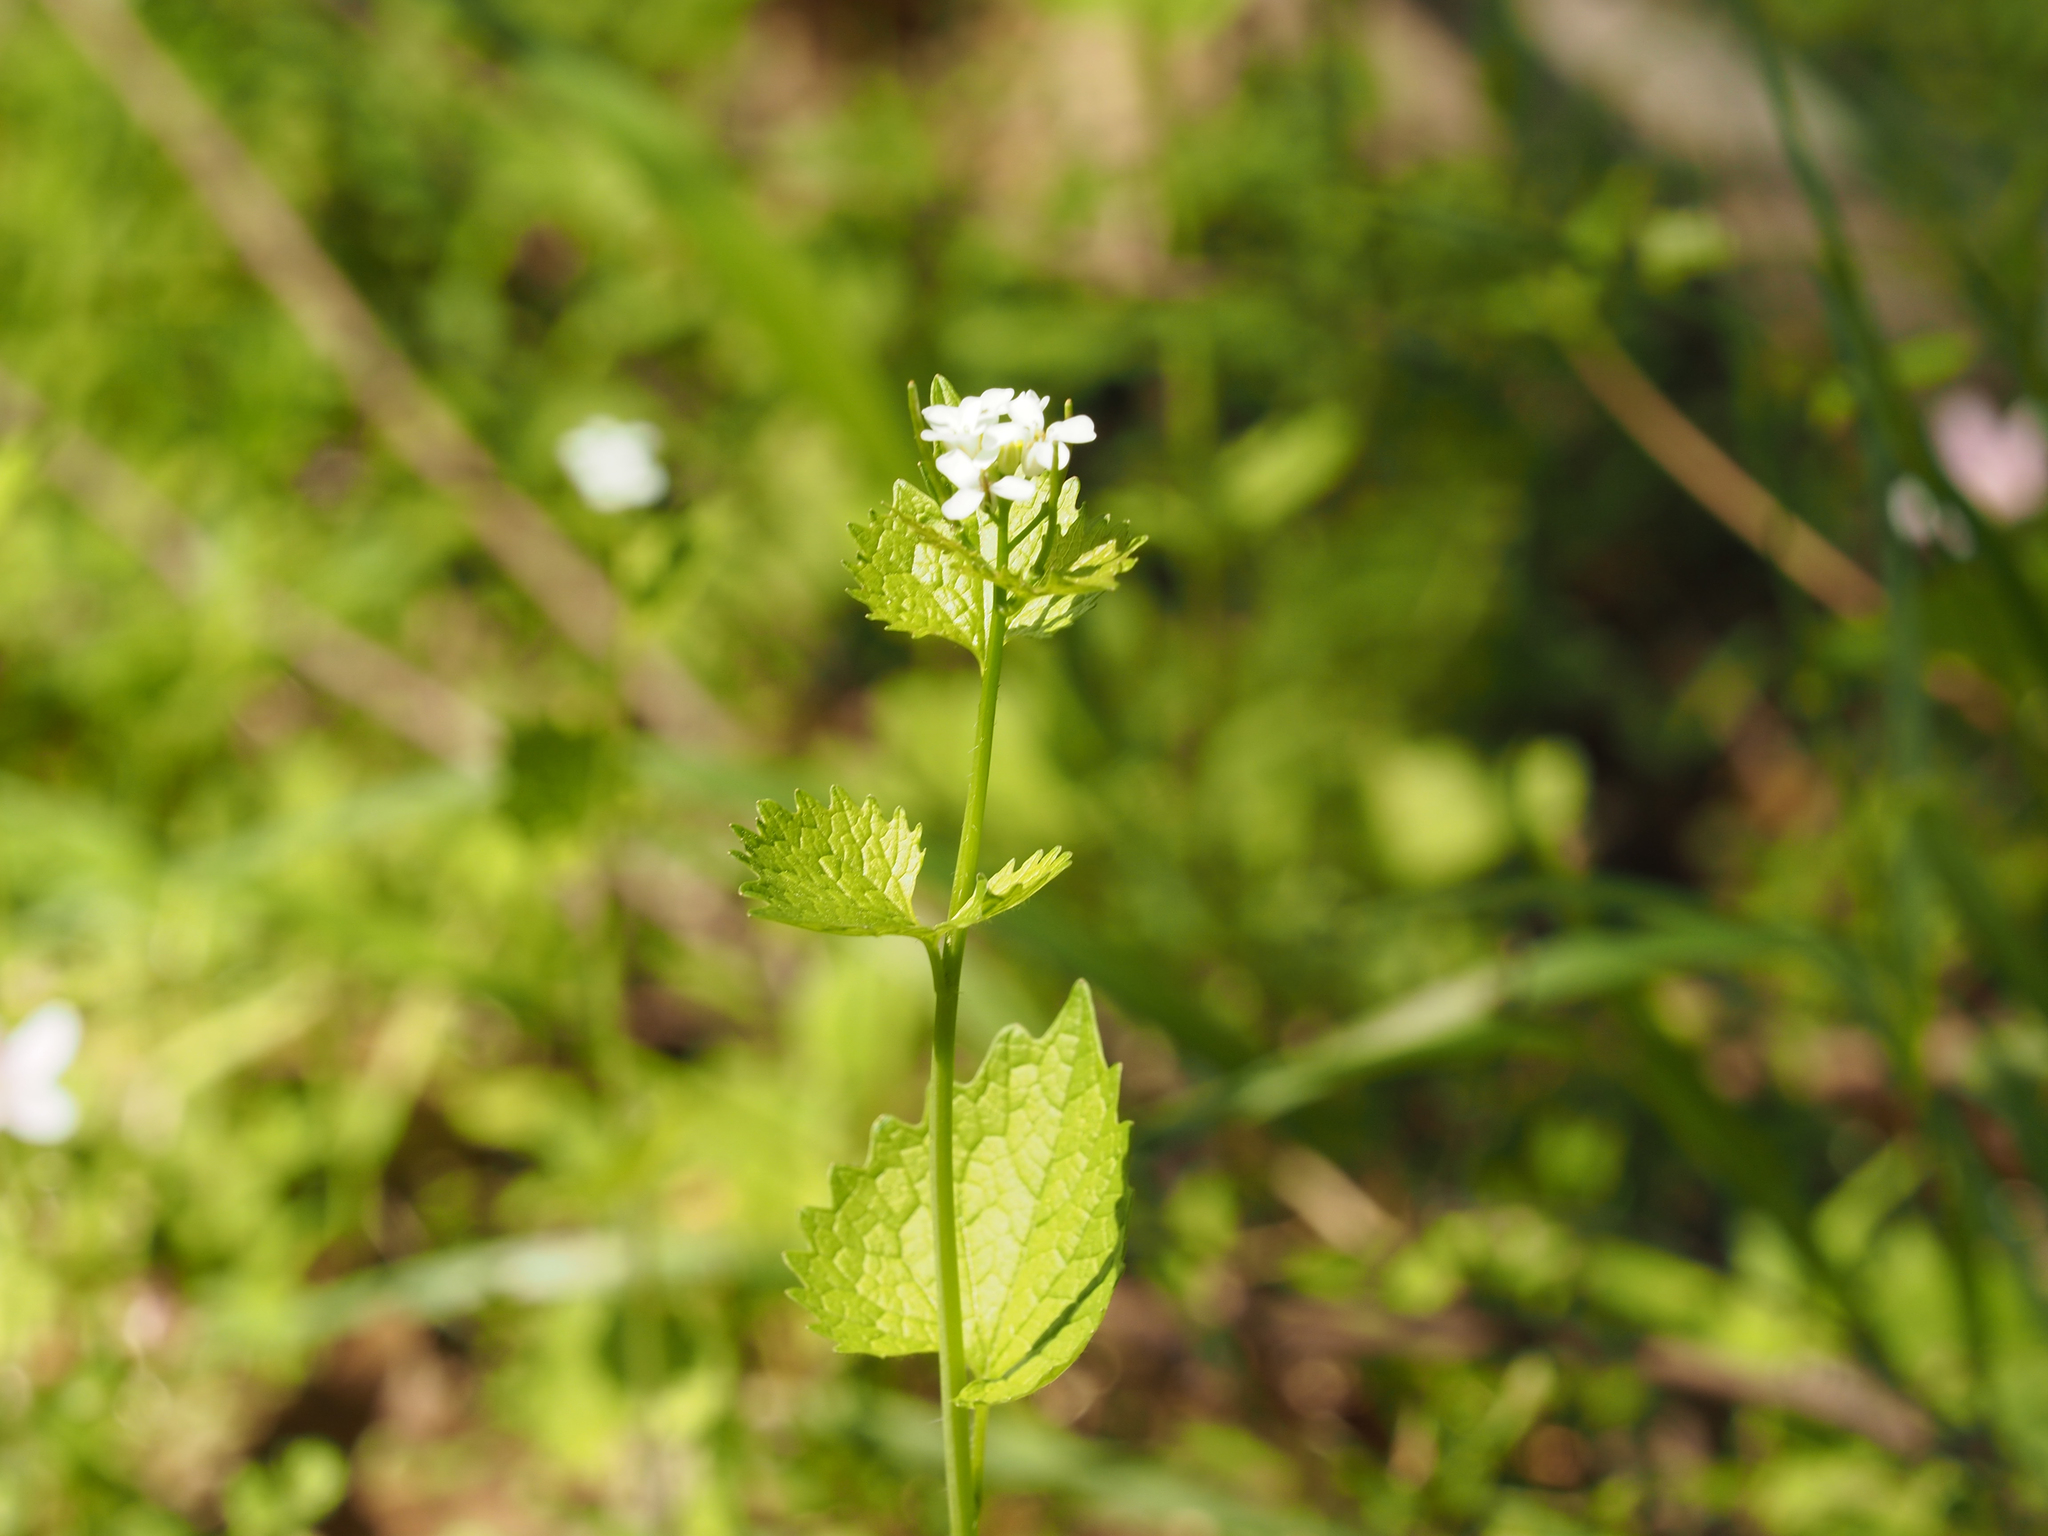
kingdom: Plantae
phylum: Tracheophyta
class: Magnoliopsida
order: Brassicales
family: Brassicaceae
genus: Alliaria
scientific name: Alliaria petiolata
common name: Garlic mustard
